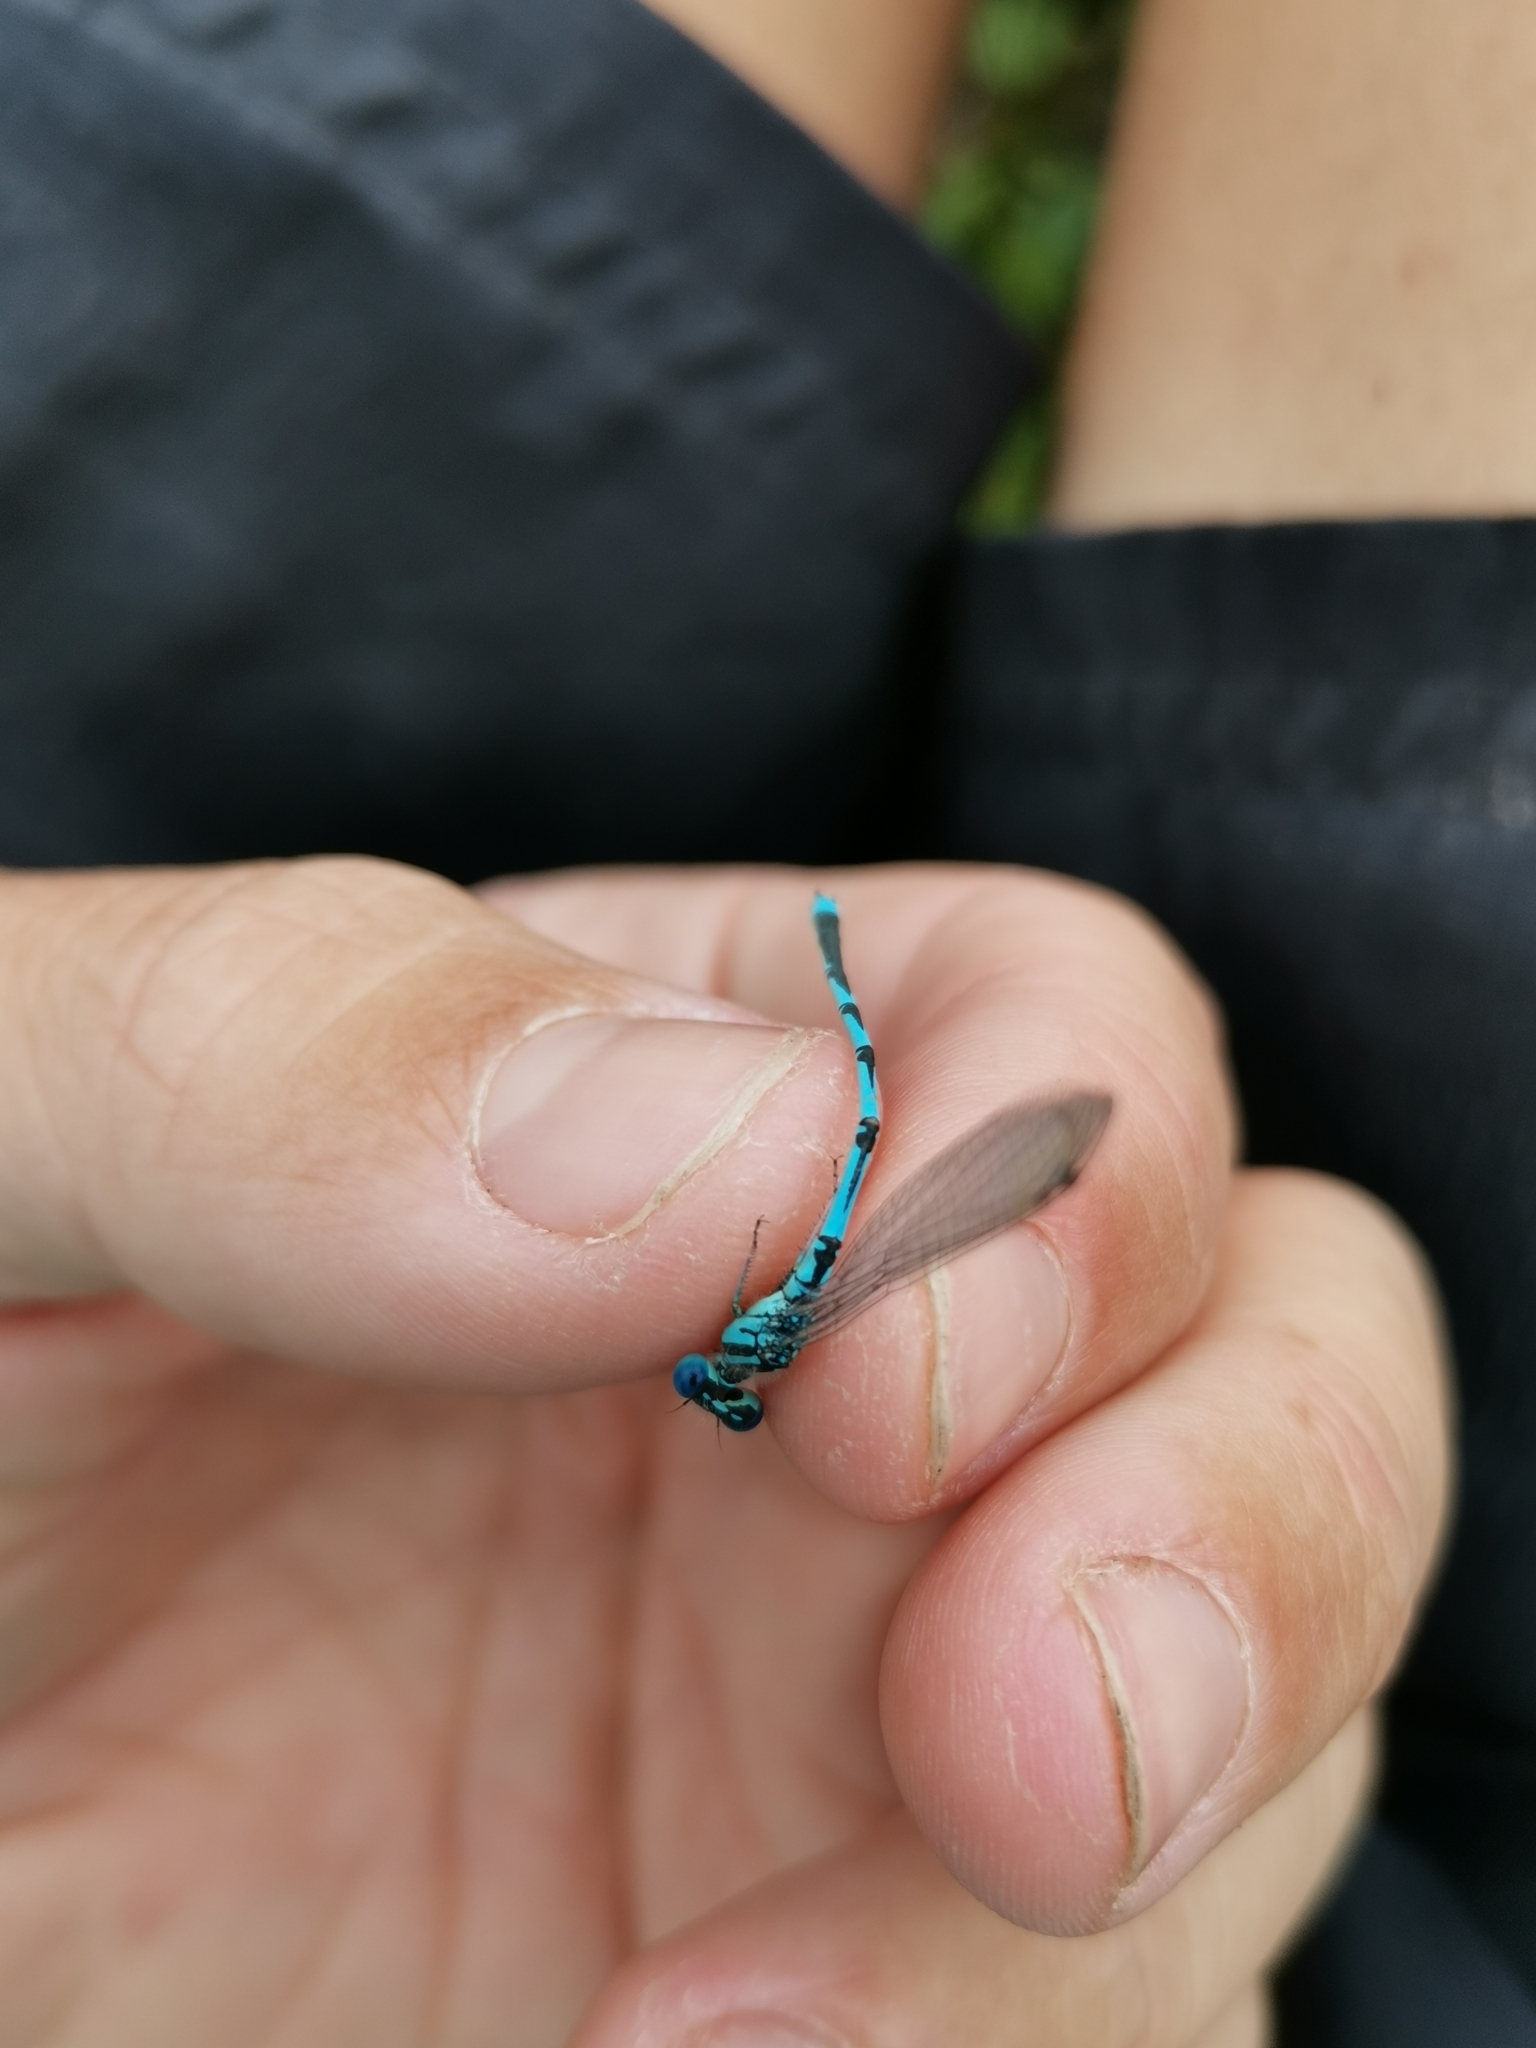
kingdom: Animalia
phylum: Arthropoda
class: Insecta
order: Odonata
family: Coenagrionidae
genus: Erythromma
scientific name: Erythromma lindenii
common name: Blue-eye
